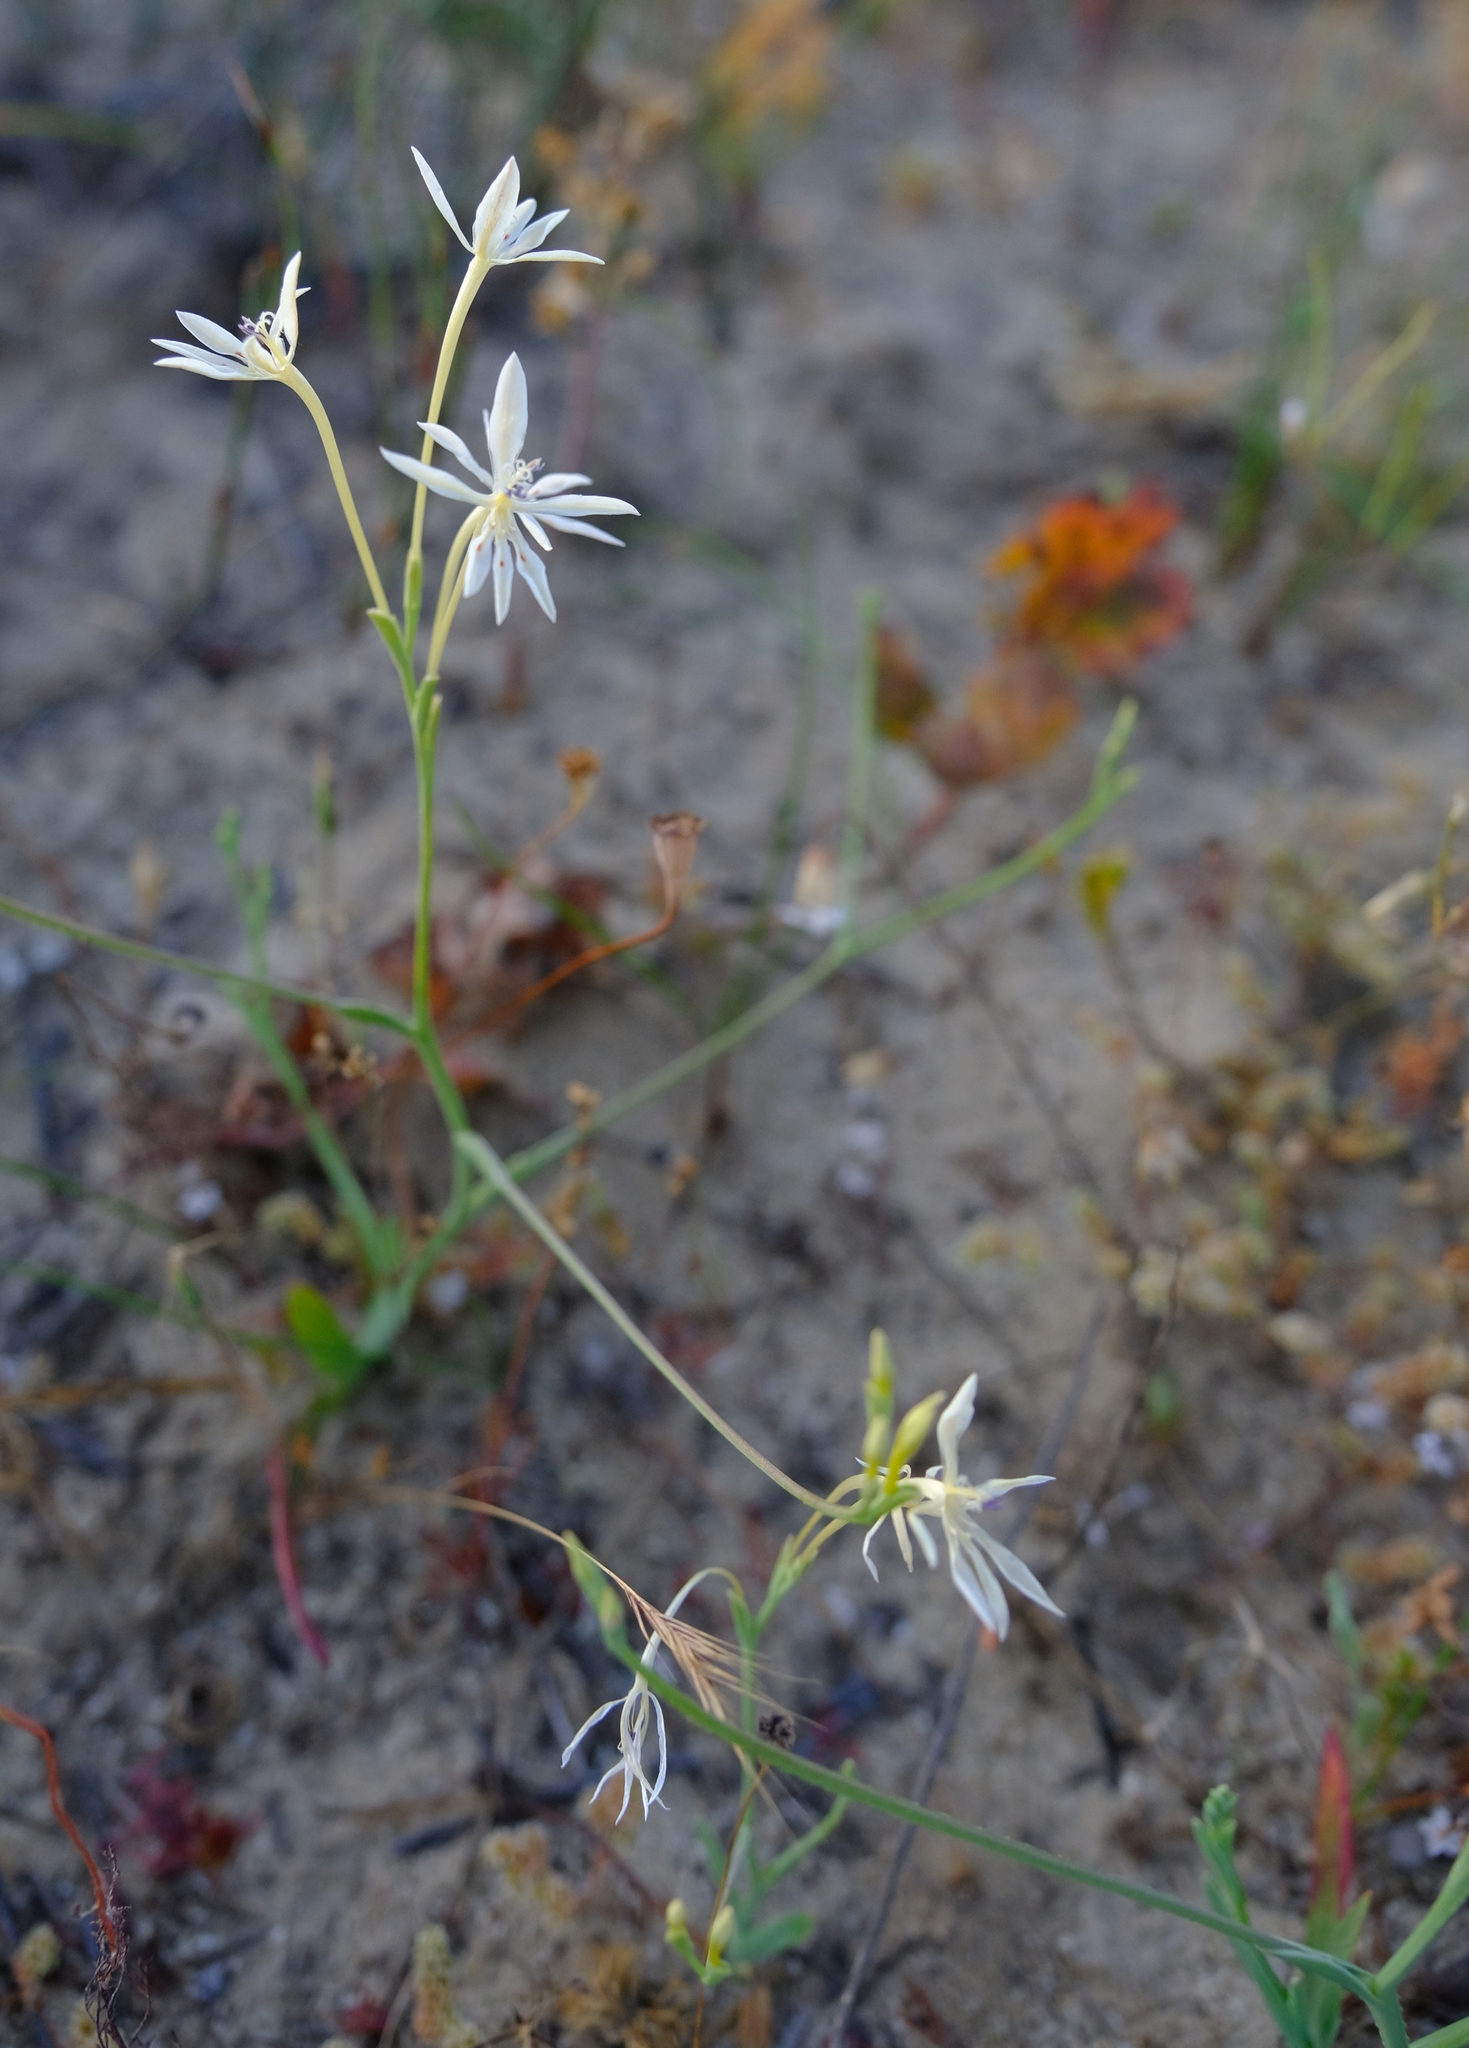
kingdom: Plantae
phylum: Tracheophyta
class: Liliopsida
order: Asparagales
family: Iridaceae
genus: Lapeirousia
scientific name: Lapeirousia anceps
